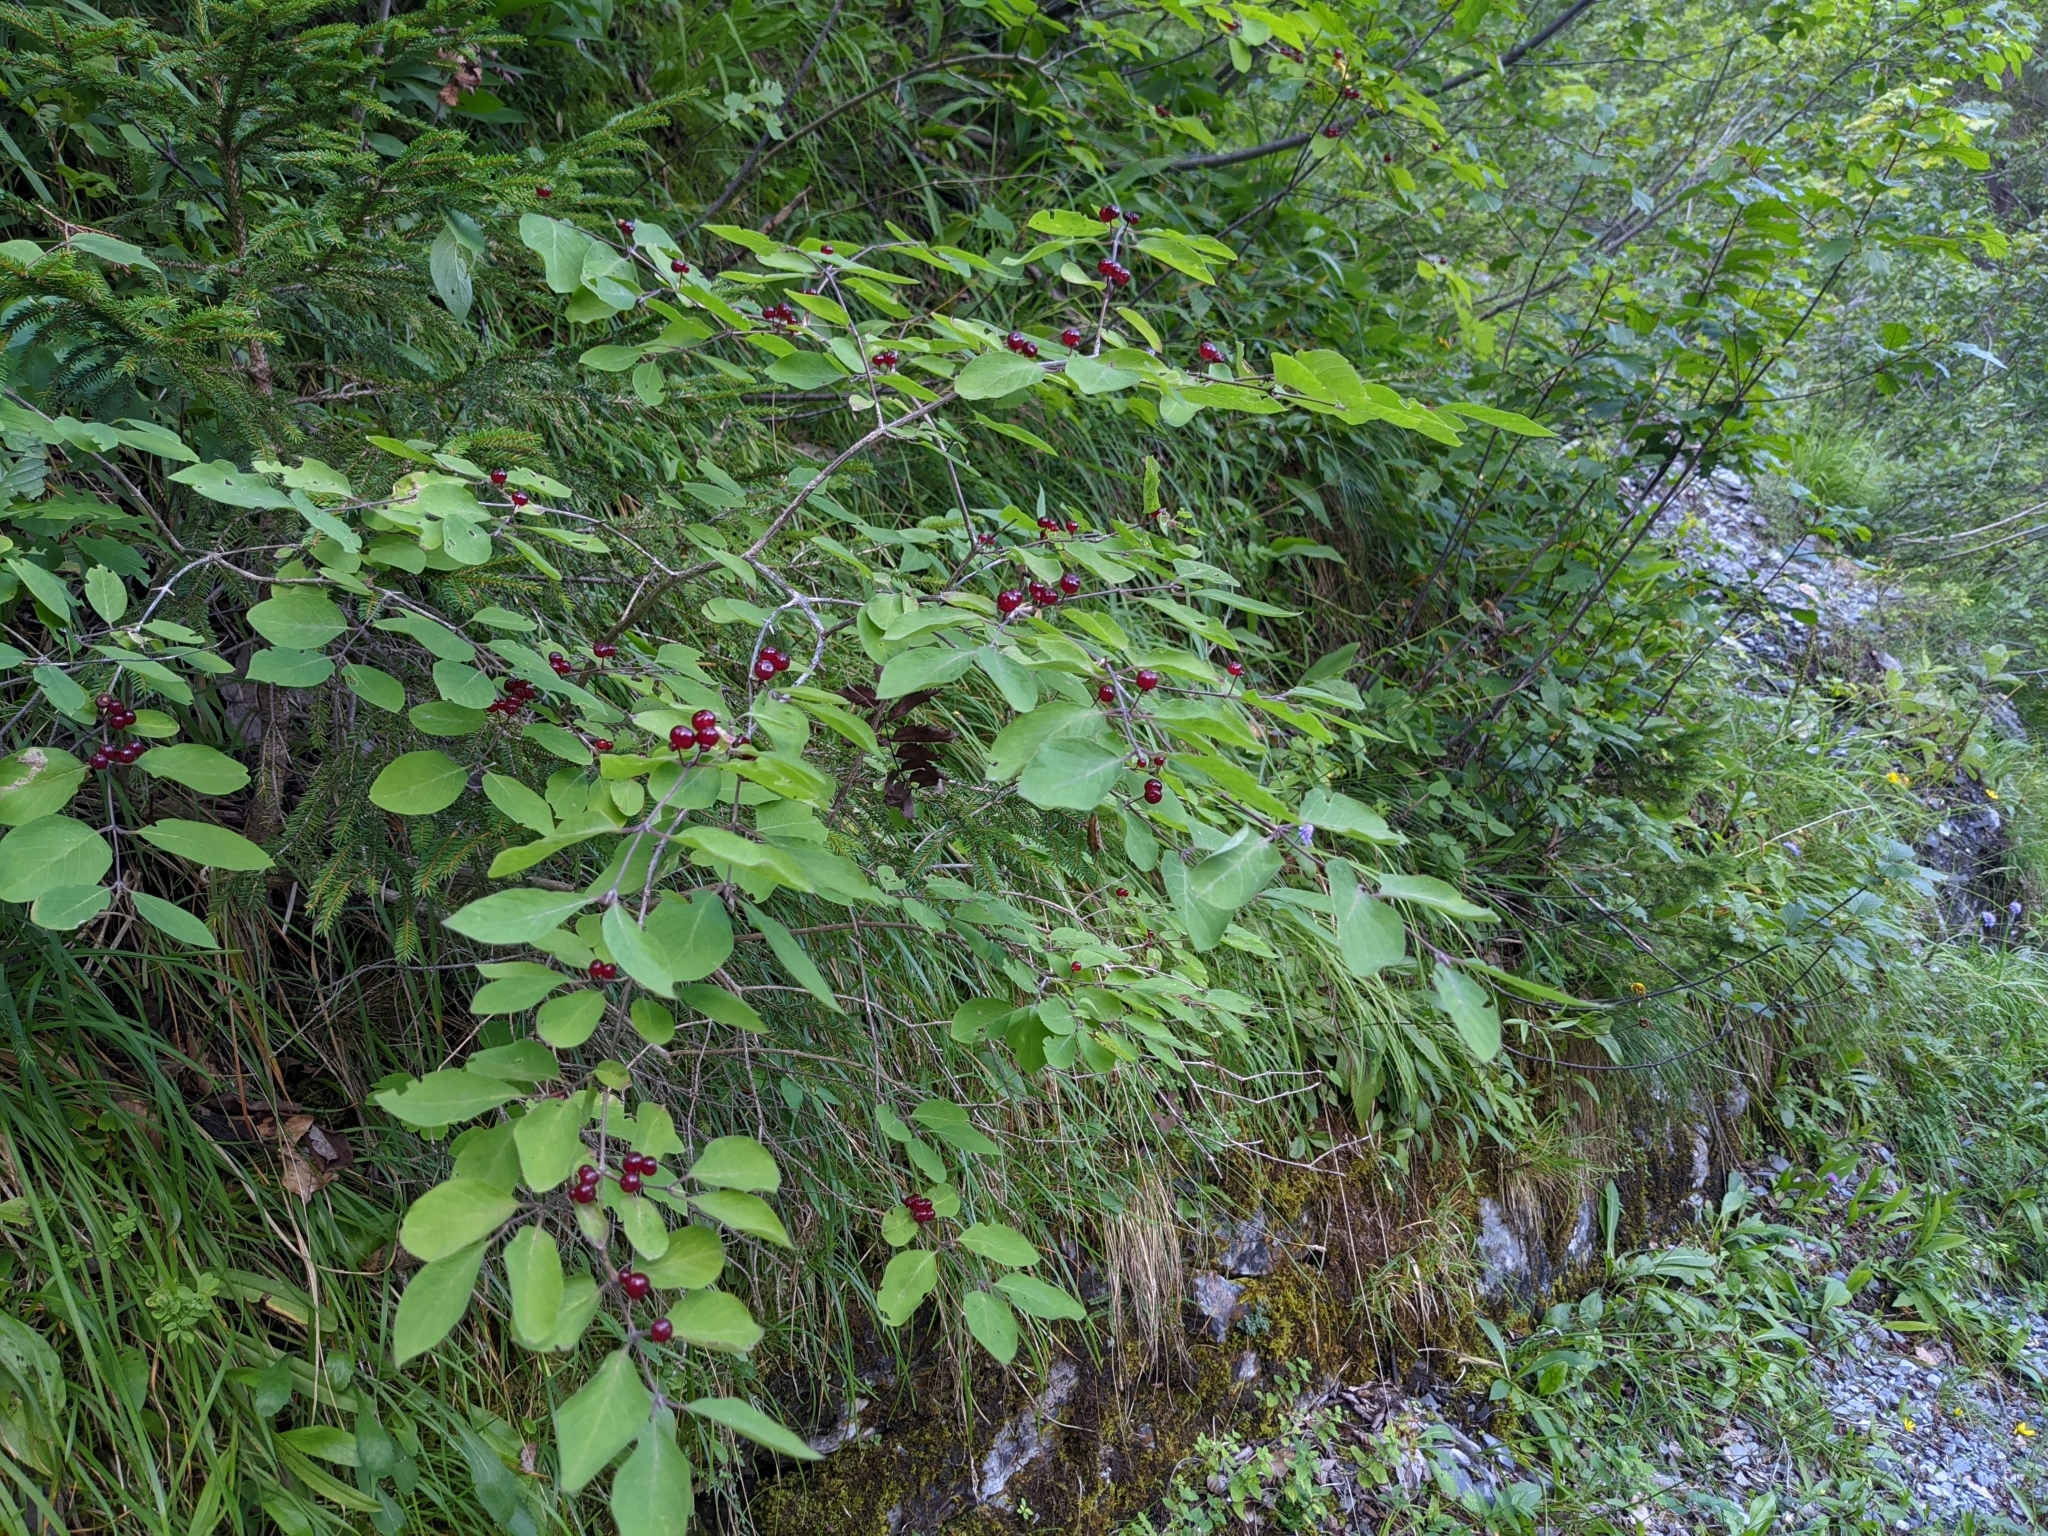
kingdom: Plantae
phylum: Tracheophyta
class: Magnoliopsida
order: Dipsacales
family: Caprifoliaceae
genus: Lonicera
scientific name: Lonicera xylosteum
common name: Fly honeysuckle
